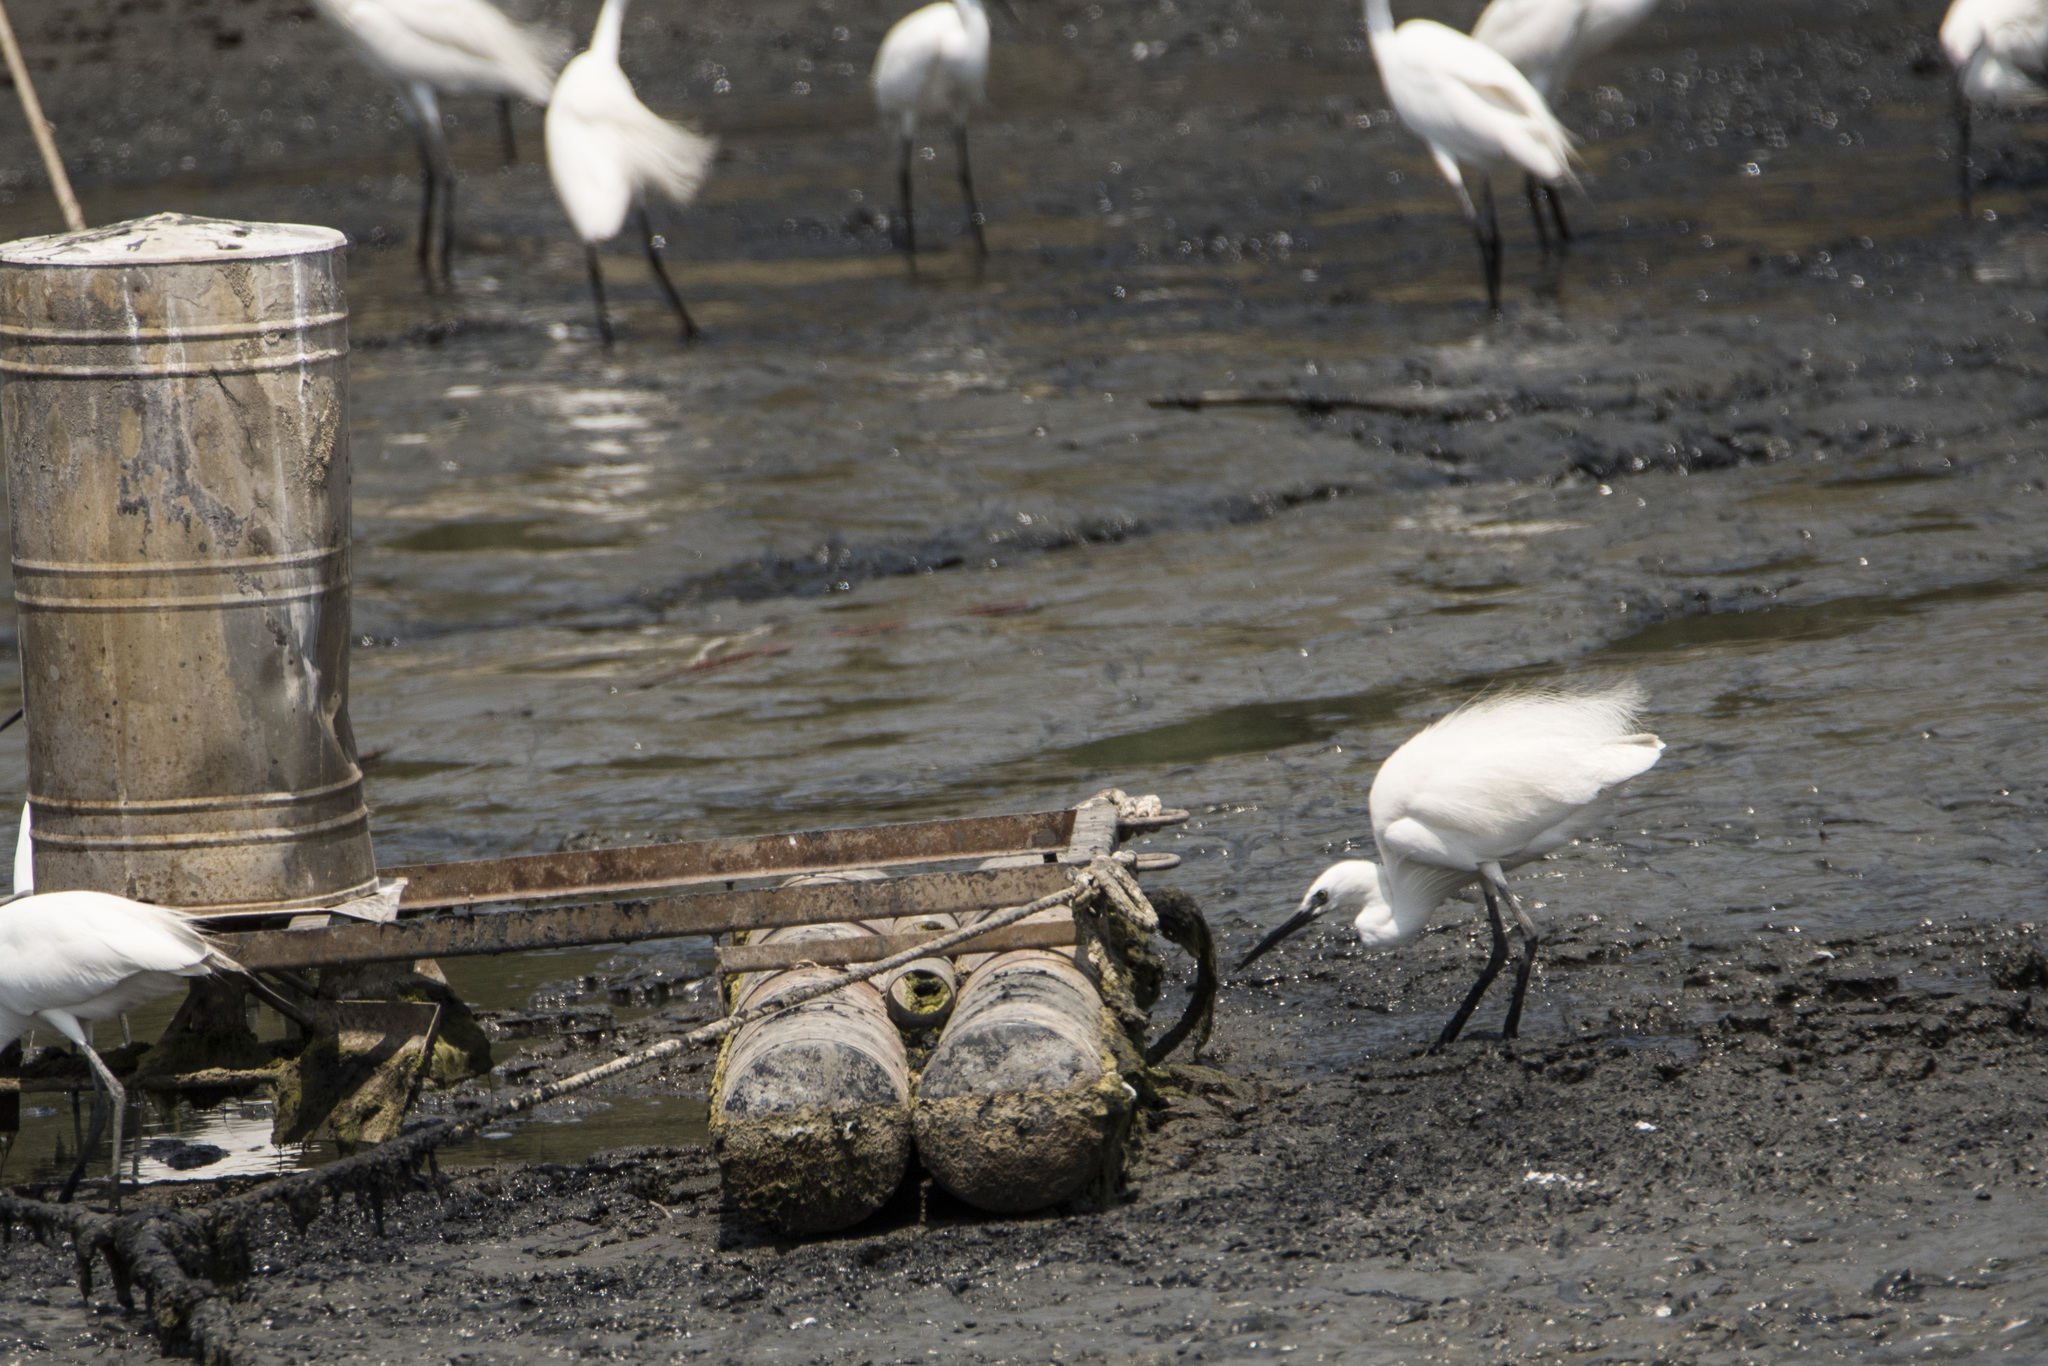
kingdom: Animalia
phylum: Chordata
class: Aves
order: Pelecaniformes
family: Ardeidae
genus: Egretta
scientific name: Egretta garzetta
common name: Little egret
